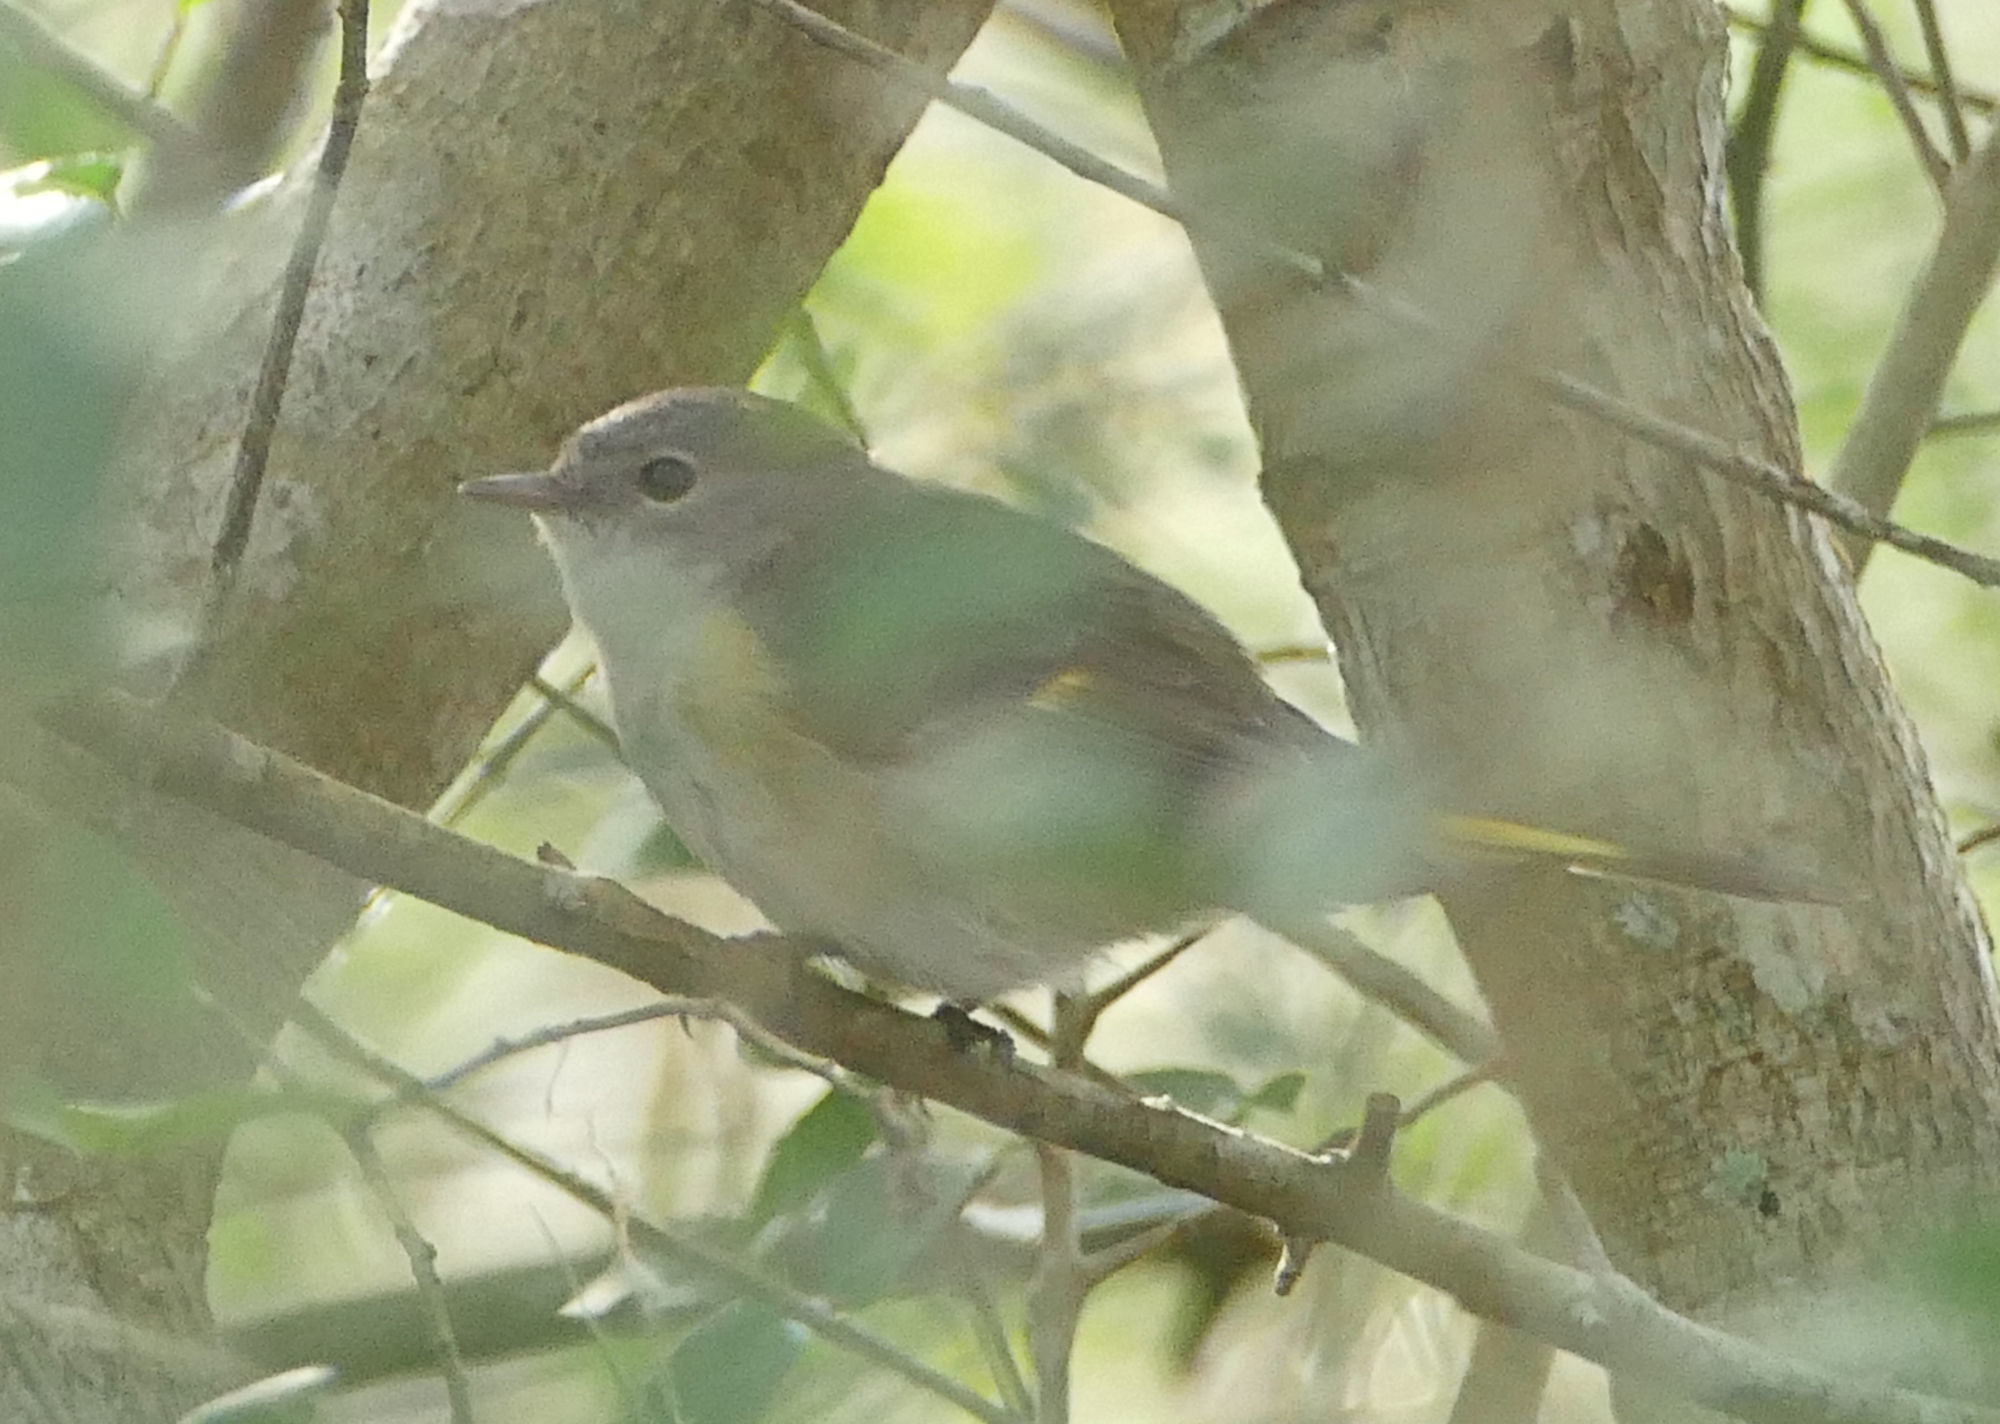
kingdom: Animalia
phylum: Chordata
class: Aves
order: Passeriformes
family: Parulidae
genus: Setophaga
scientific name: Setophaga ruticilla
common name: American redstart
